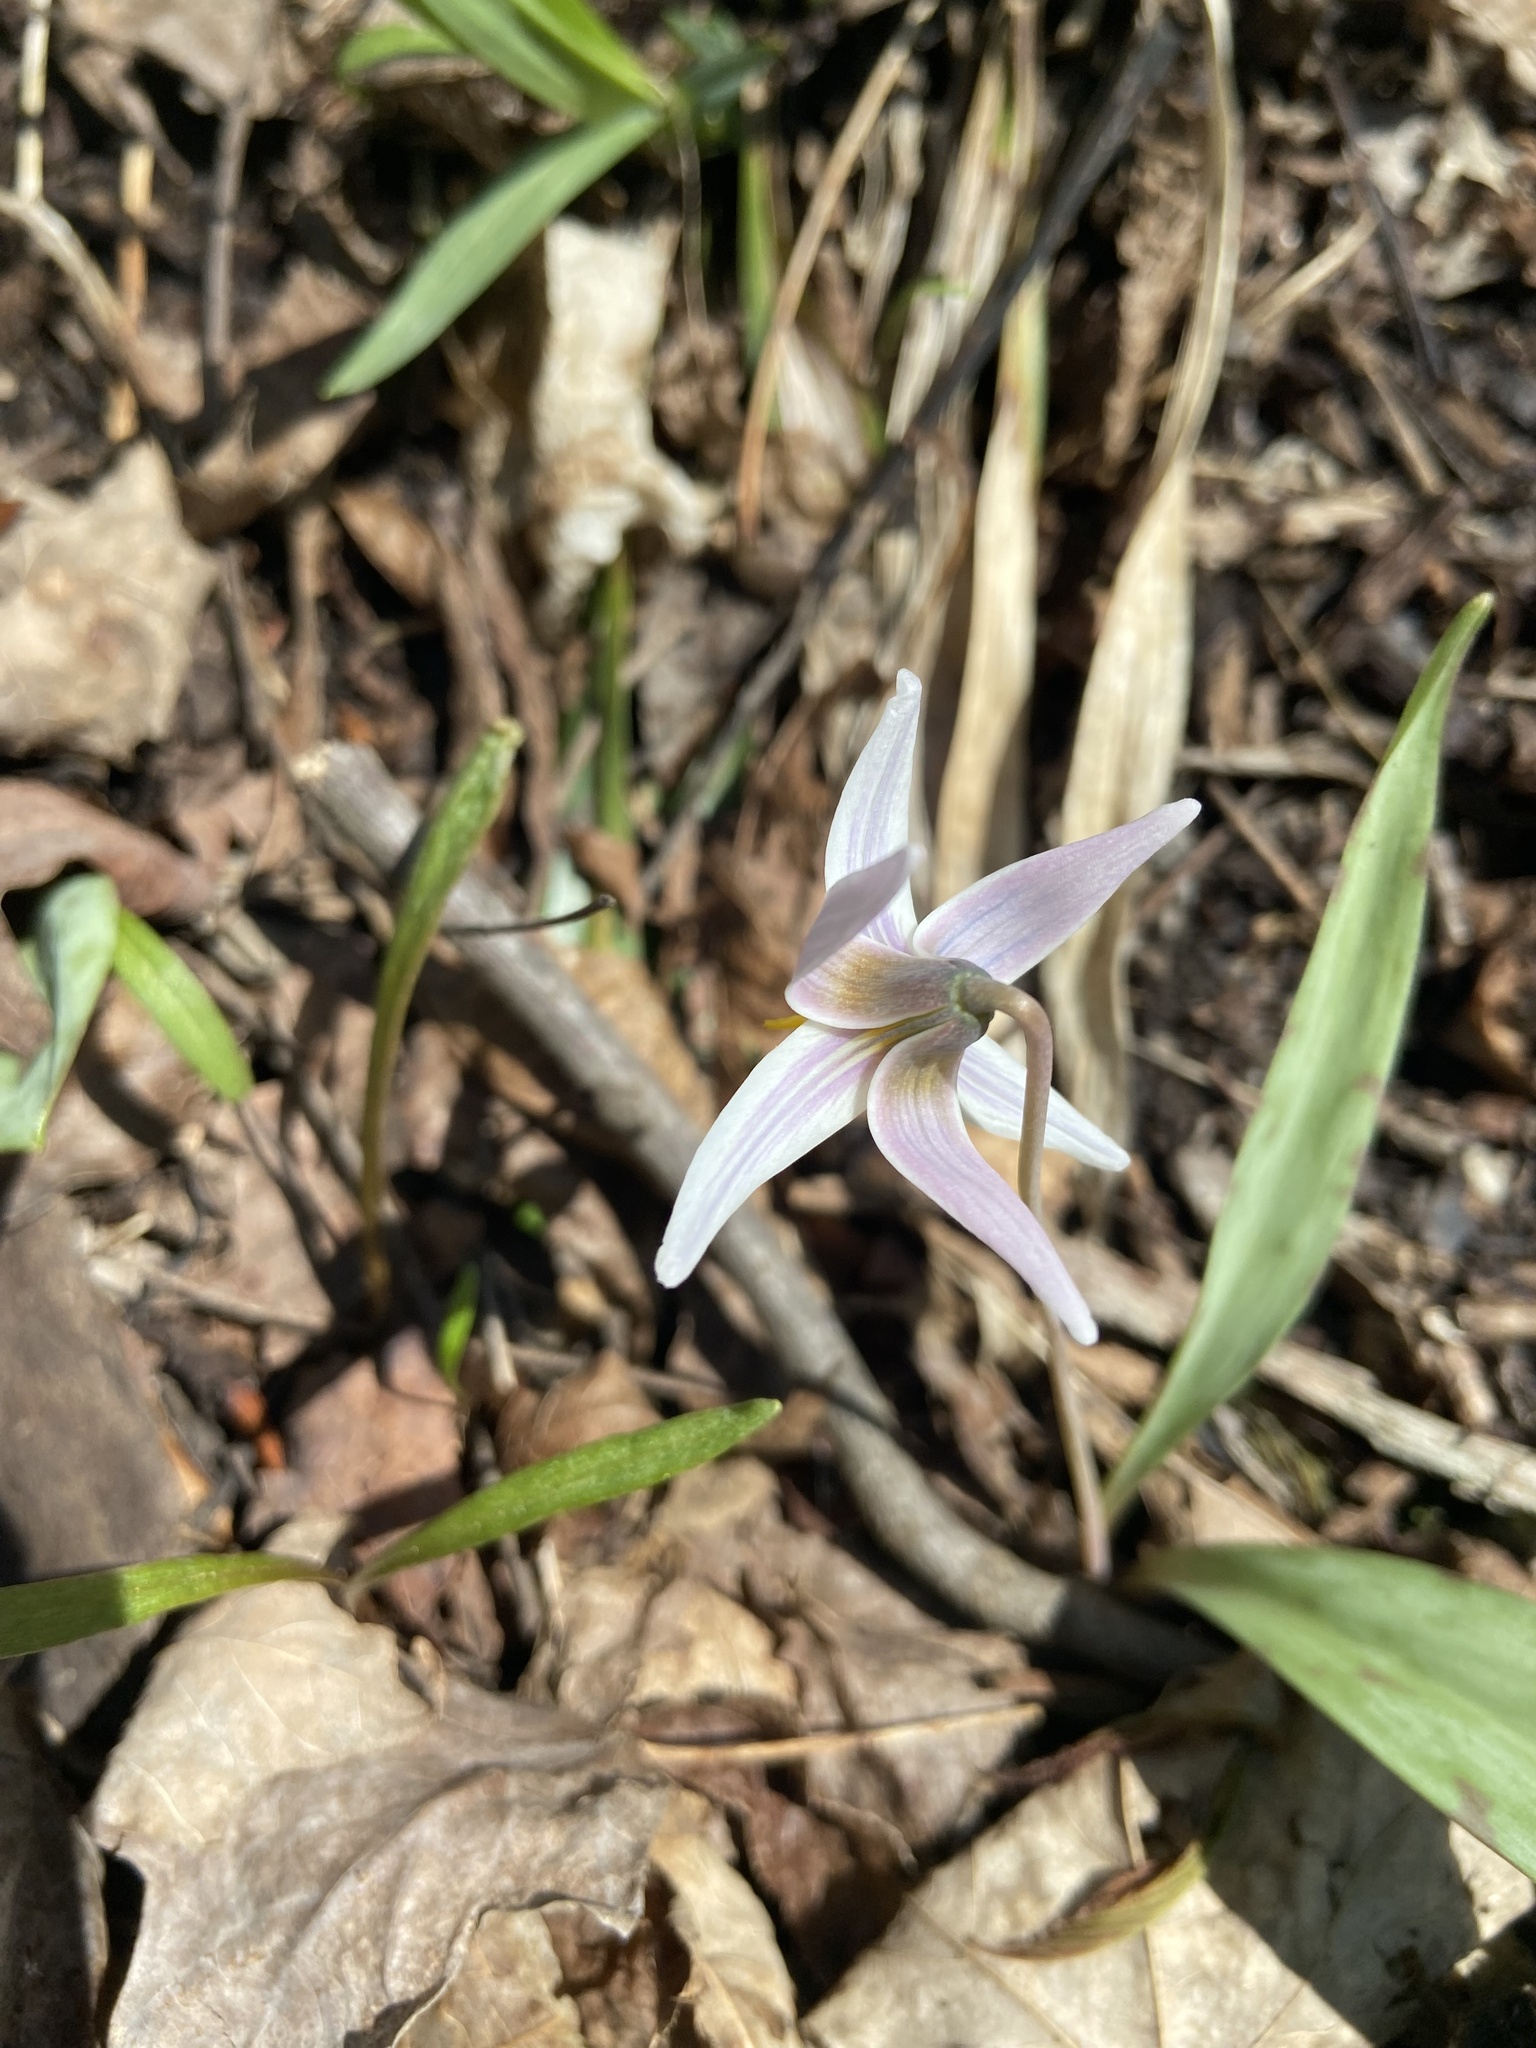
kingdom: Plantae
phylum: Tracheophyta
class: Liliopsida
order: Liliales
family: Liliaceae
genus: Erythronium
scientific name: Erythronium albidum
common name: White trout-lily
